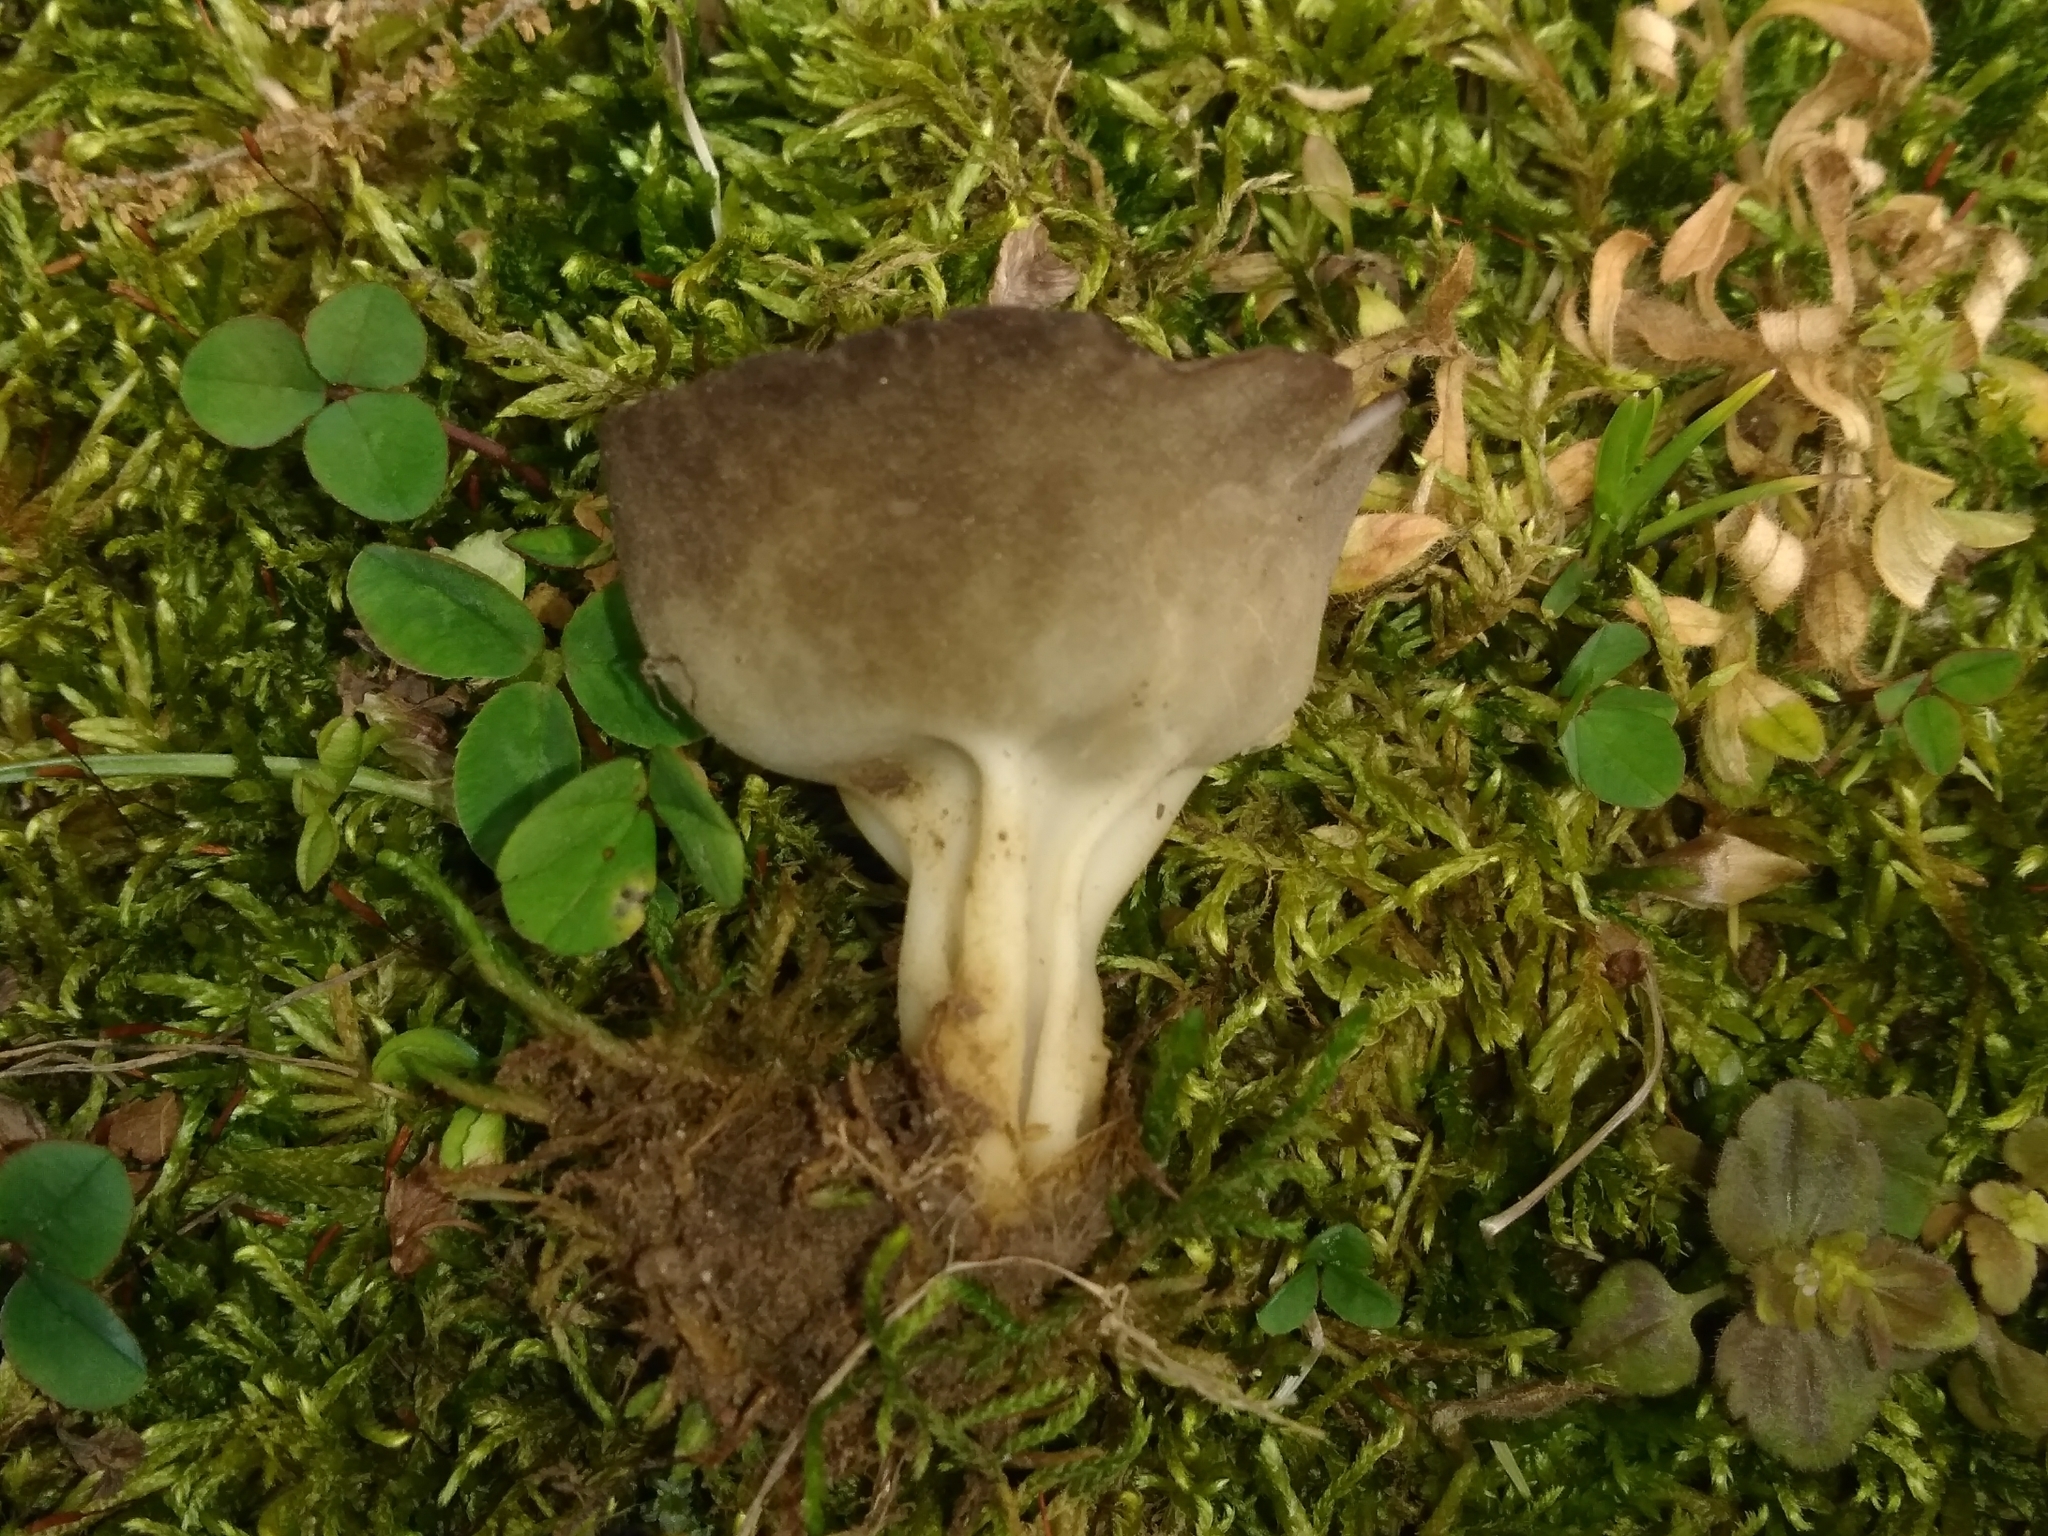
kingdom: Fungi
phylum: Ascomycota
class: Pezizomycetes
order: Pezizales
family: Helvellaceae
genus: Helvella
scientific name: Helvella acetabulum
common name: Vinegar cup
